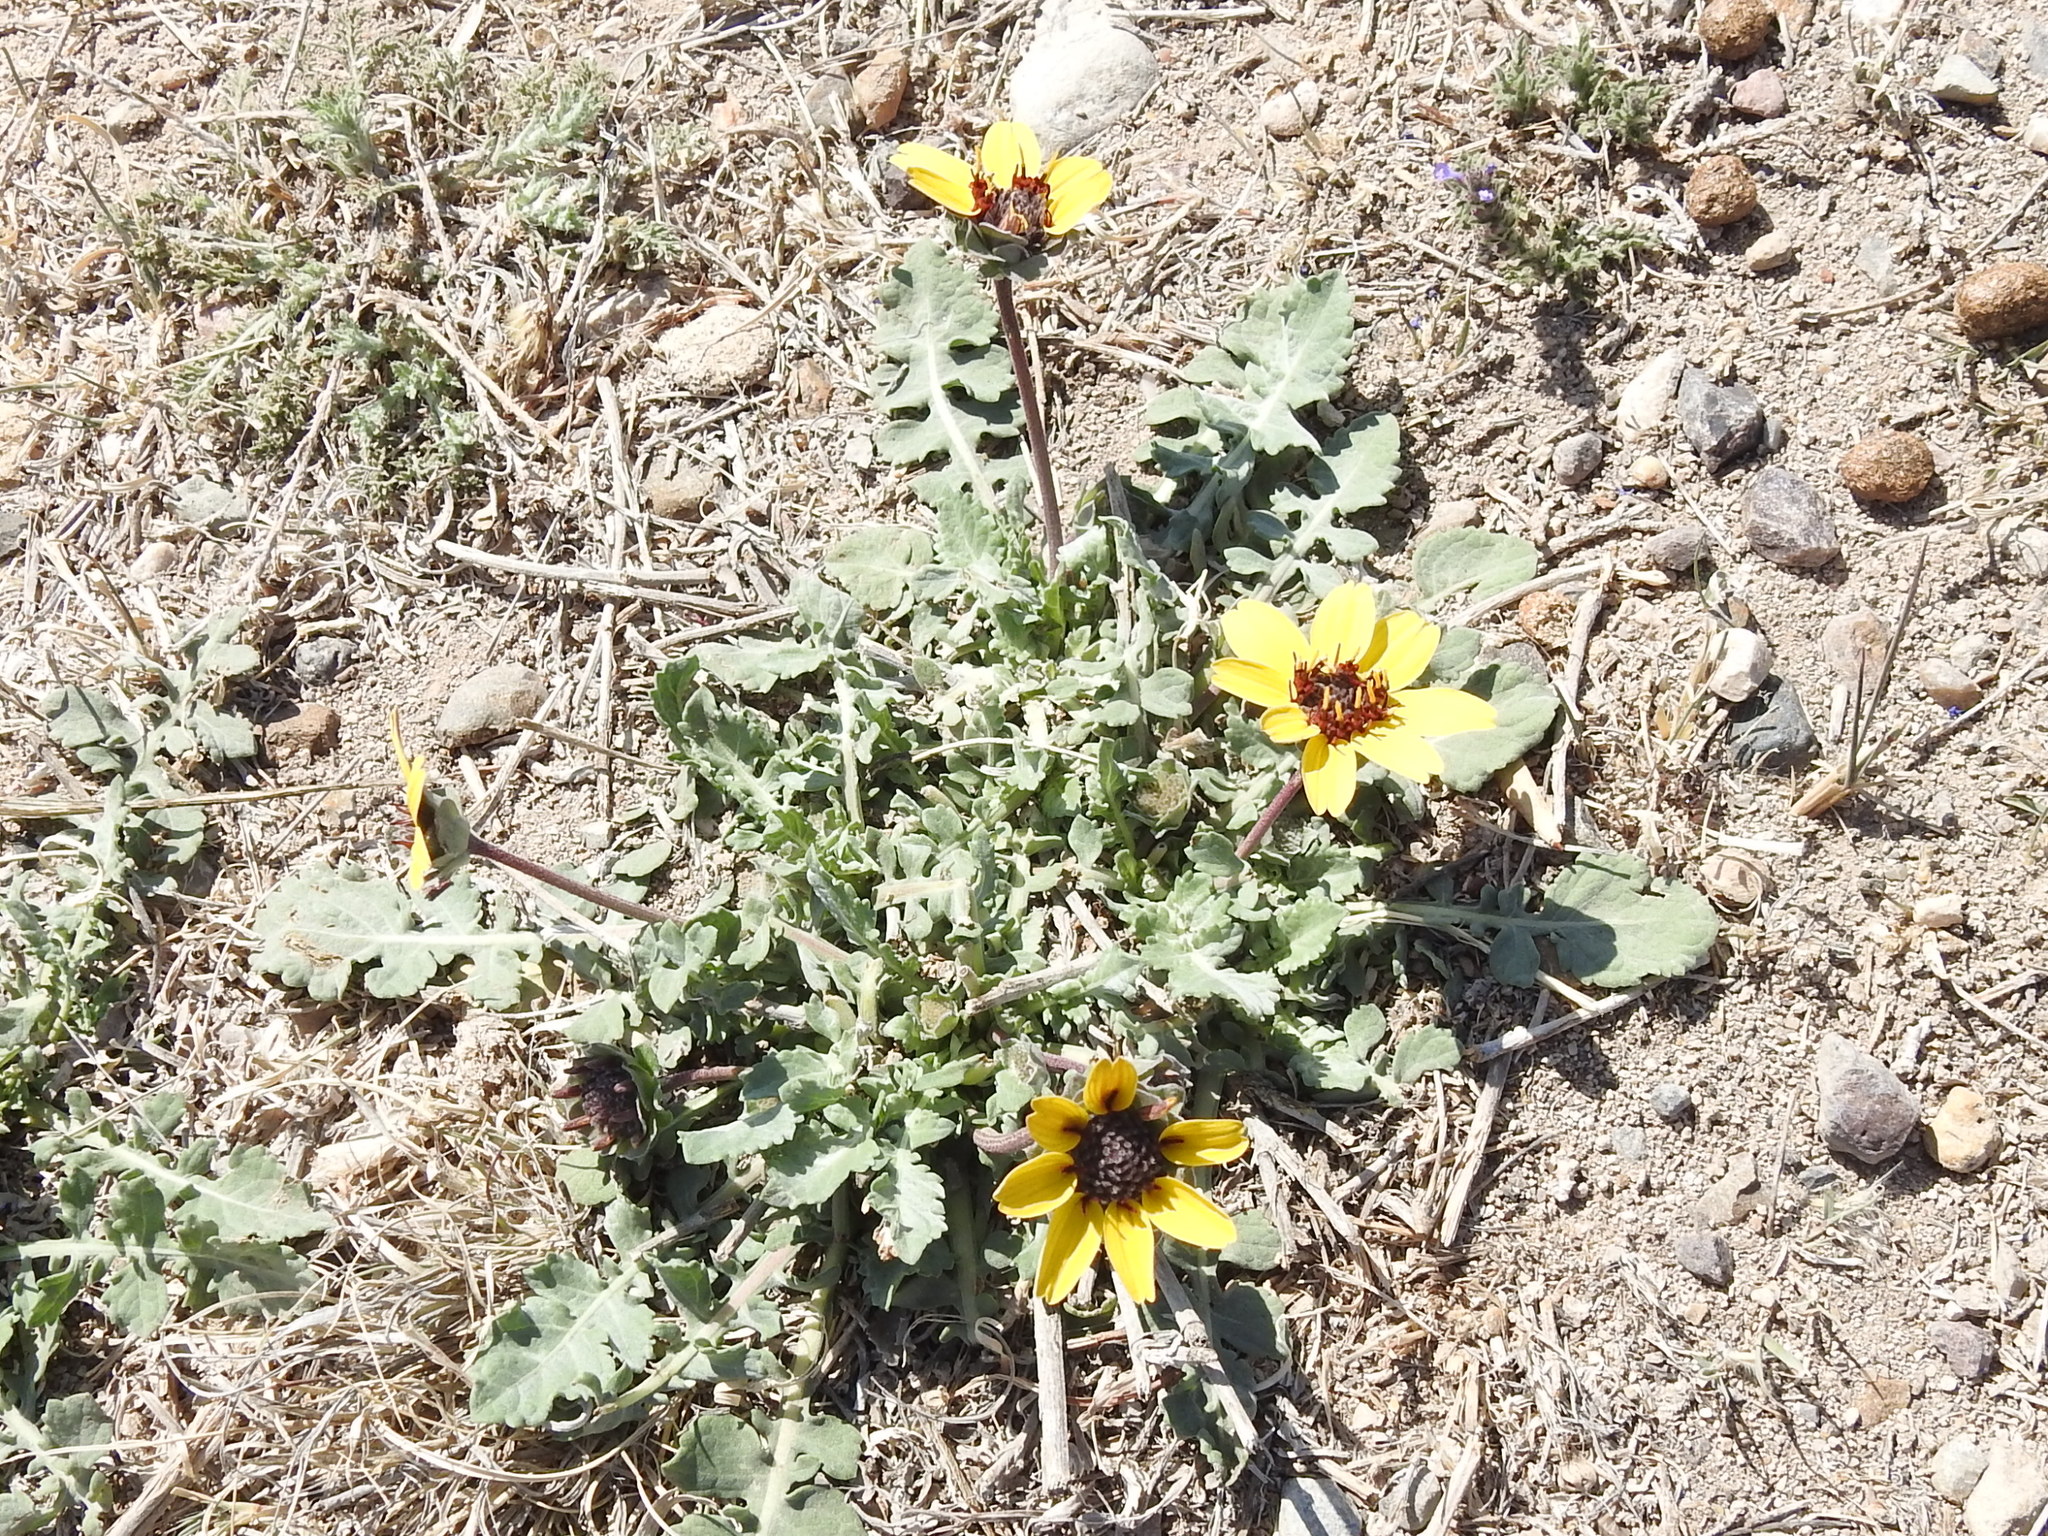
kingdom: Plantae
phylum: Tracheophyta
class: Magnoliopsida
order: Asterales
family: Asteraceae
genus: Berlandiera
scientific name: Berlandiera lyrata
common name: Chocolate-flower
